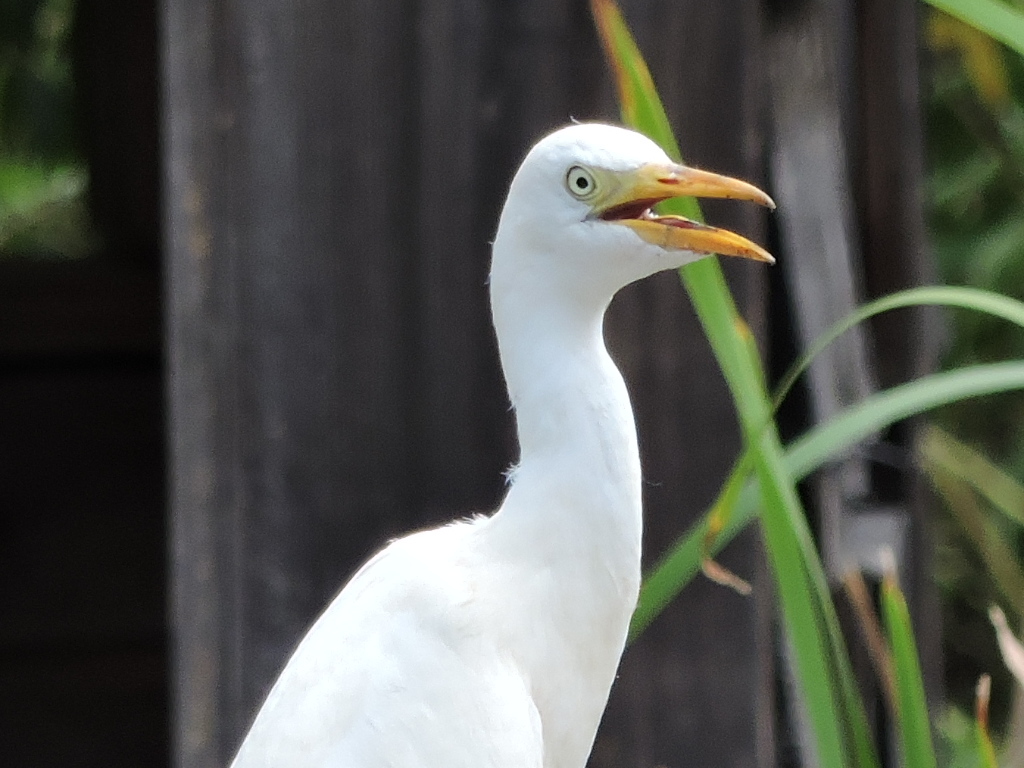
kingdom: Animalia
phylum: Chordata
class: Aves
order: Pelecaniformes
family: Ardeidae
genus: Bubulcus
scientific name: Bubulcus ibis
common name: Cattle egret
